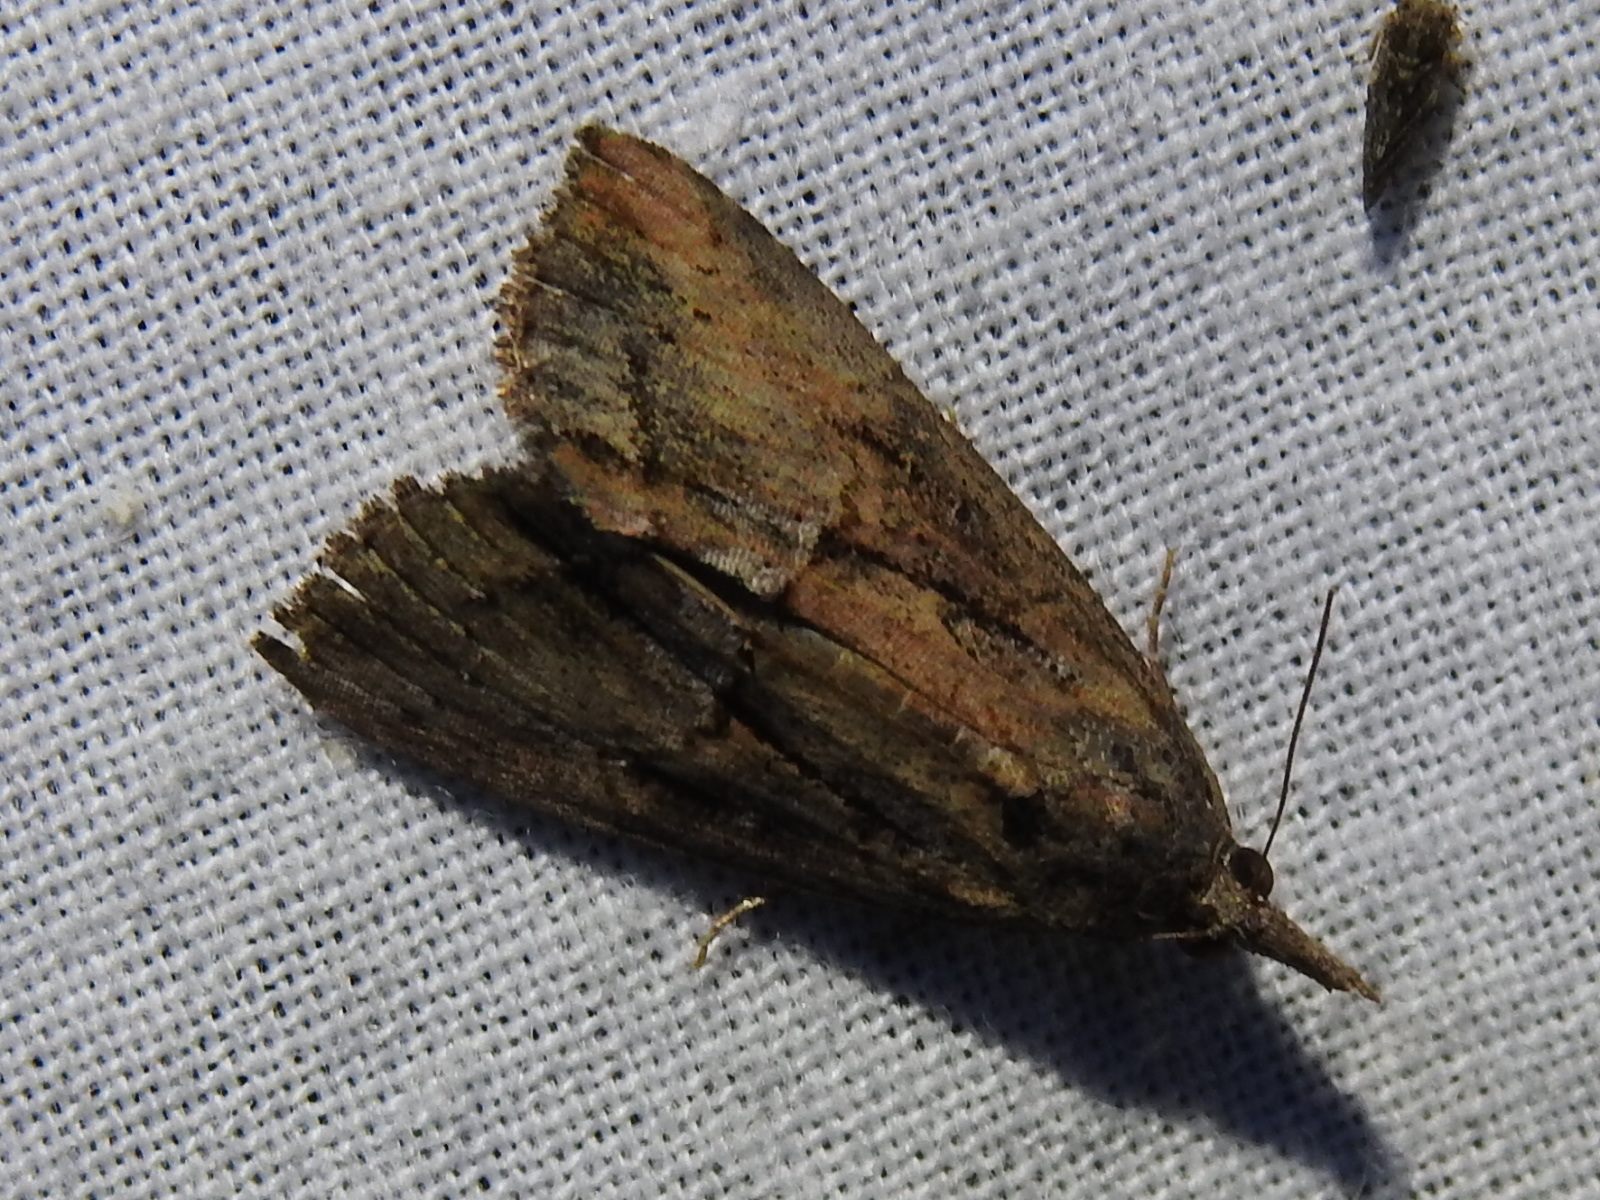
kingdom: Animalia
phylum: Arthropoda
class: Insecta
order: Lepidoptera
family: Erebidae
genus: Hypena
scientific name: Hypena scabra
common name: Green cloverworm
